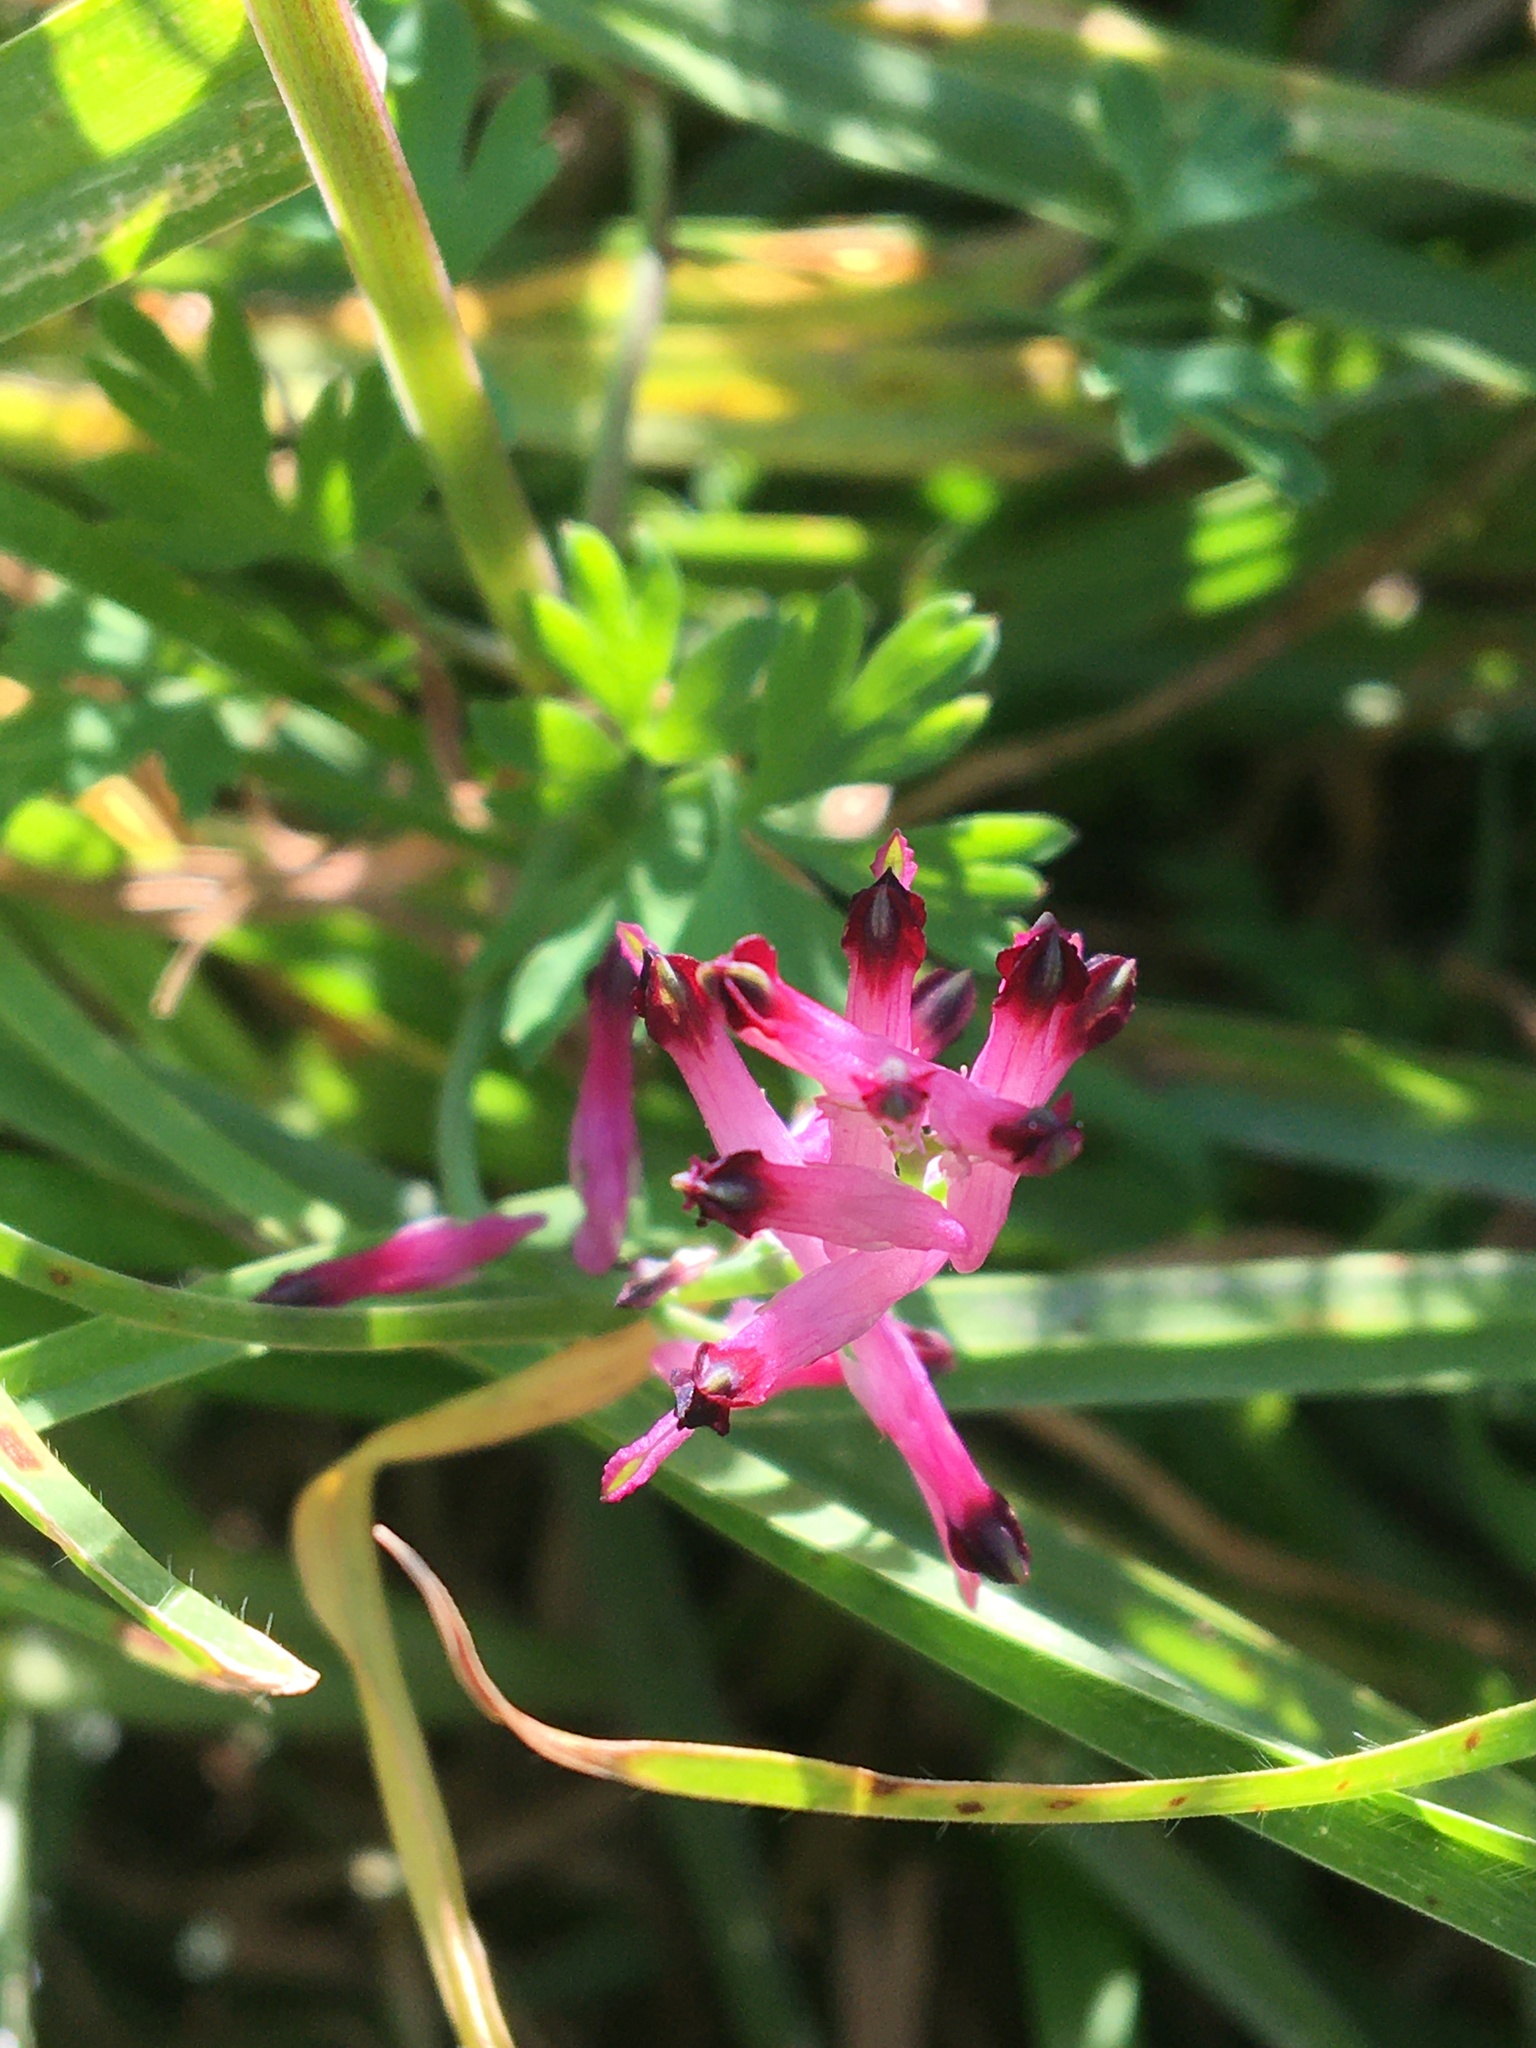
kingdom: Plantae
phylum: Tracheophyta
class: Magnoliopsida
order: Ranunculales
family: Papaveraceae
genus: Fumaria
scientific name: Fumaria muralis
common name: Common ramping-fumitory
